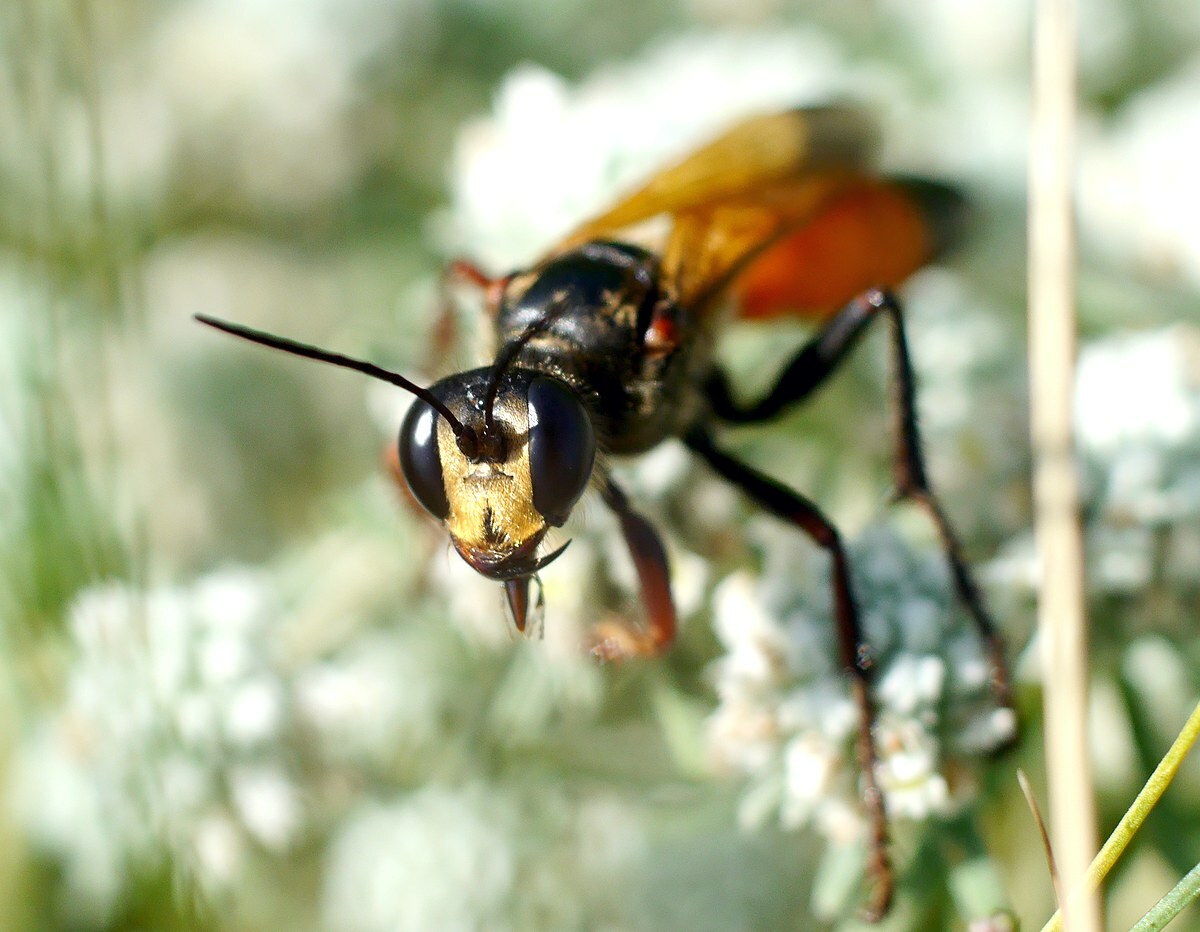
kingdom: Animalia
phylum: Arthropoda
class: Insecta
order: Hymenoptera
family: Sphecidae
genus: Sphex
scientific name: Sphex flavipennis
